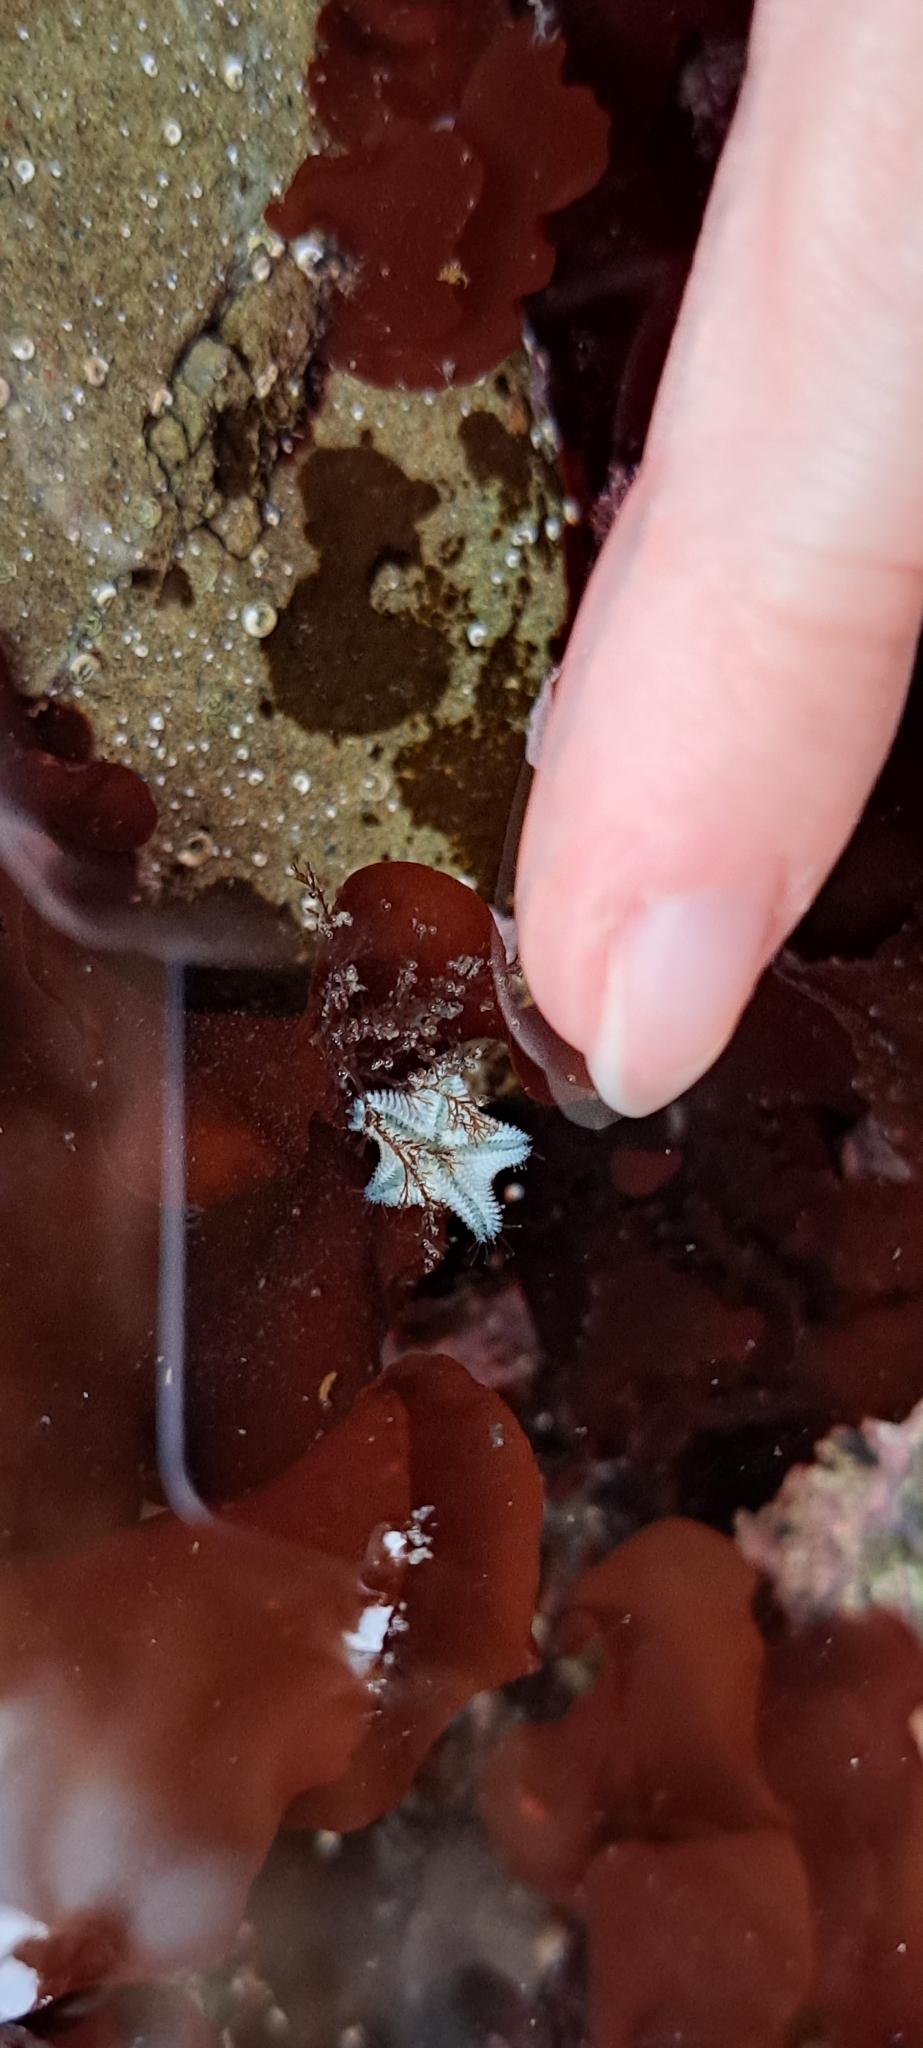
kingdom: Animalia
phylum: Echinodermata
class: Asteroidea
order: Valvatida
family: Asterinidae
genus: Patiriella
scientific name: Patiriella regularis
